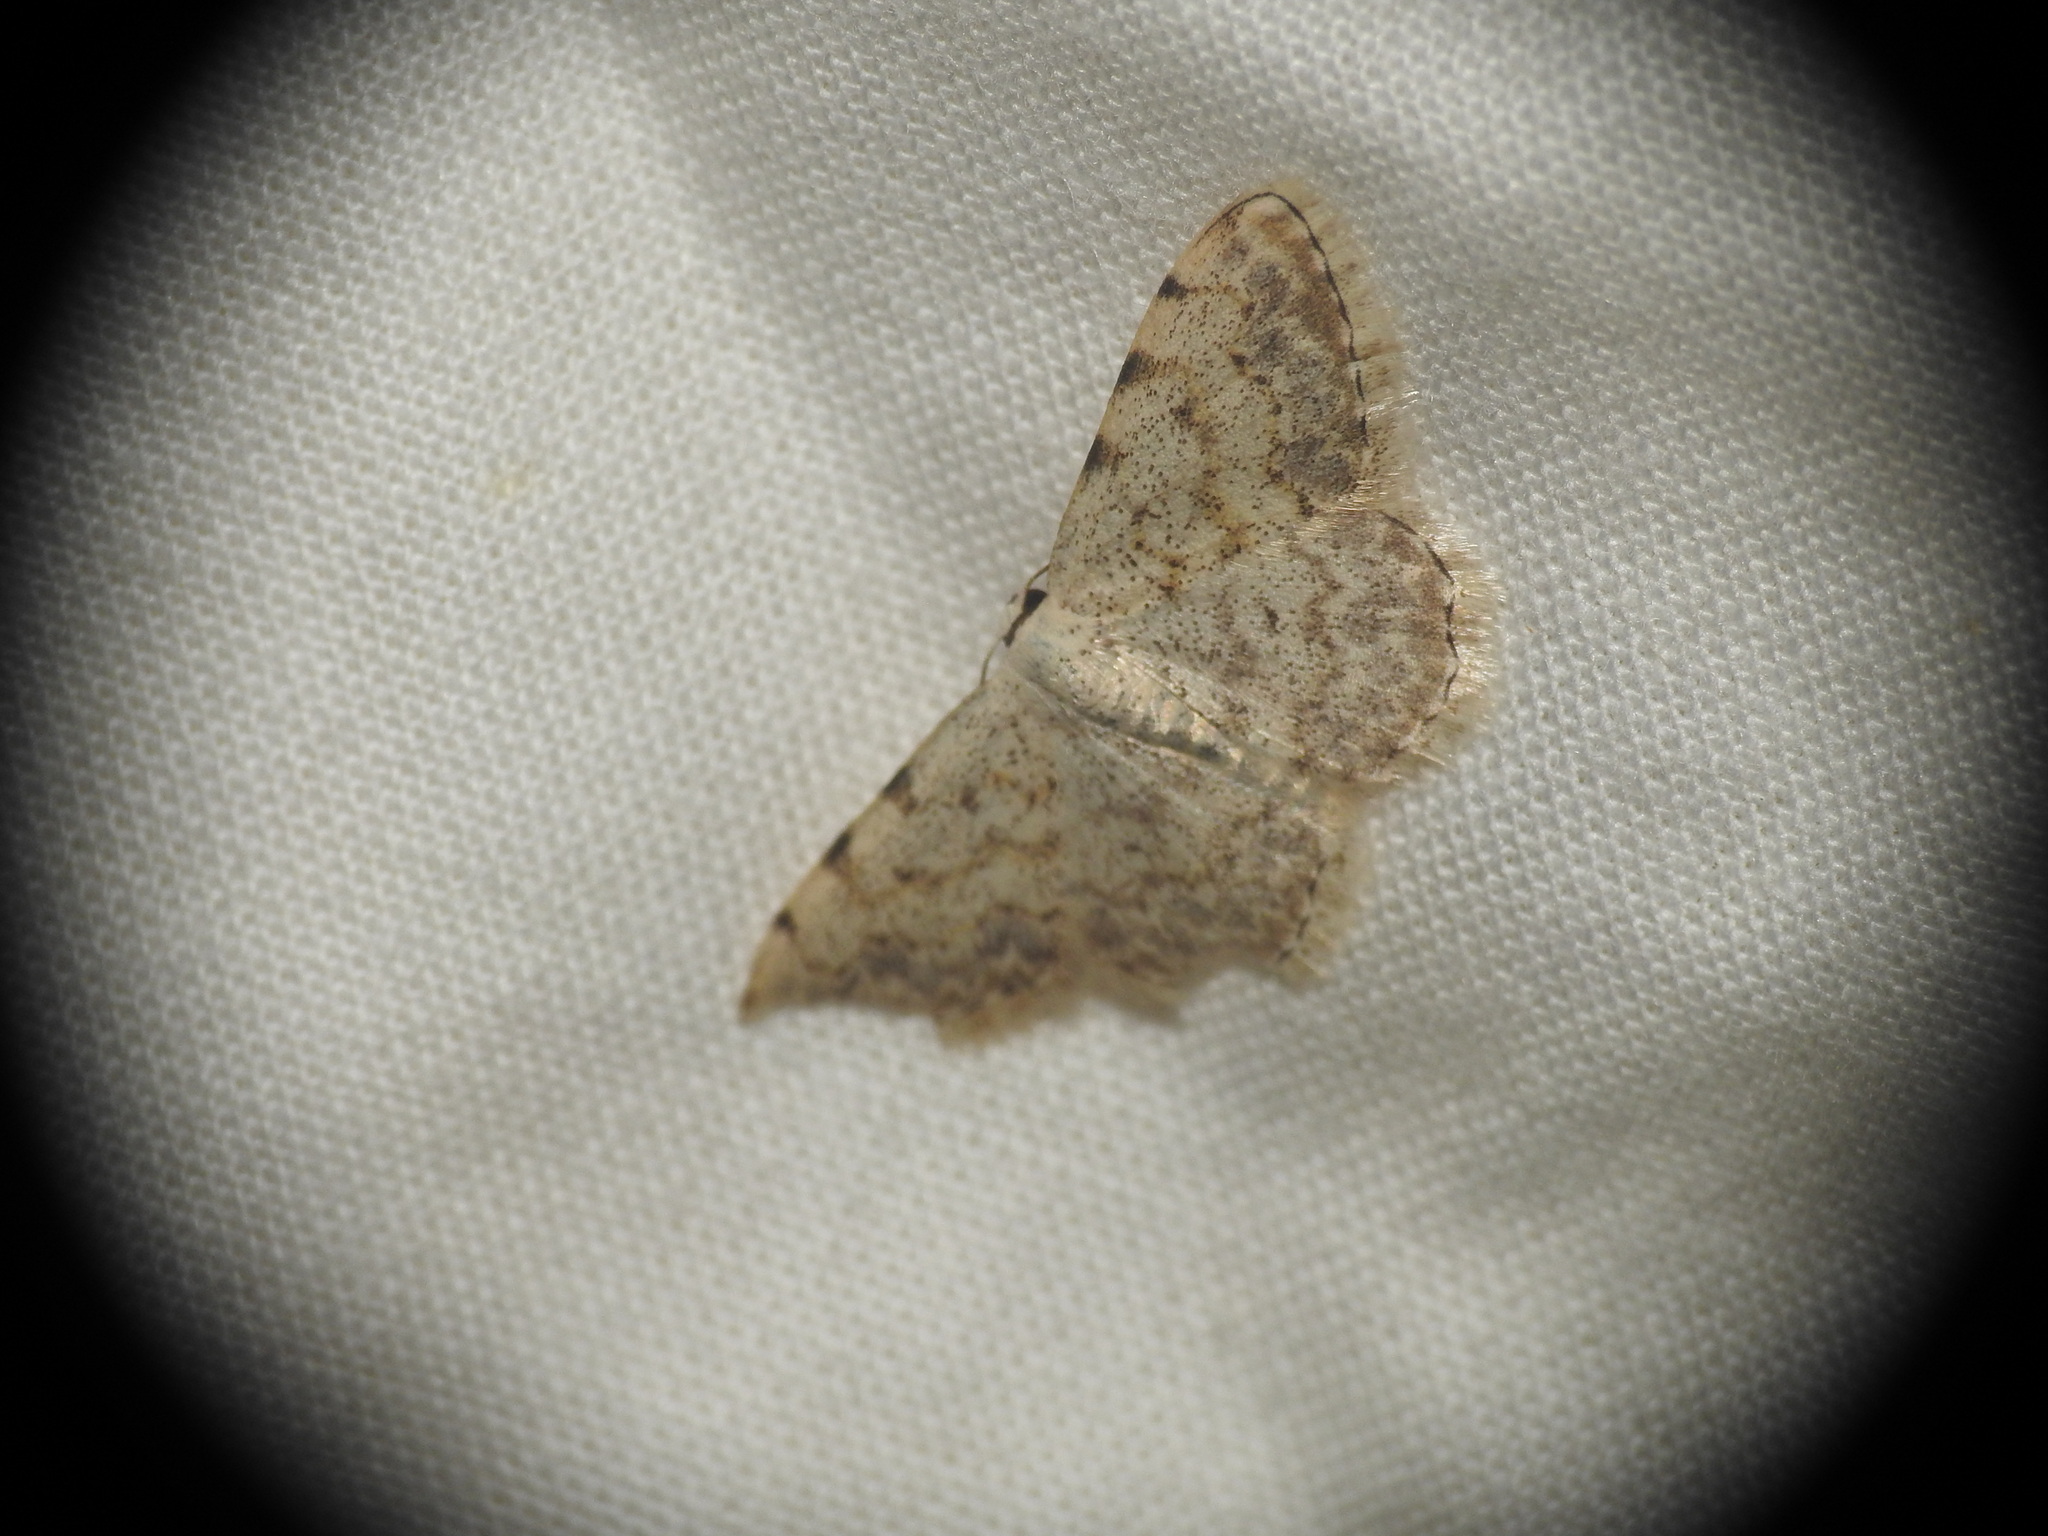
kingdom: Animalia
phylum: Arthropoda
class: Insecta
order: Lepidoptera
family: Geometridae
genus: Scopula
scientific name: Scopula submutata
